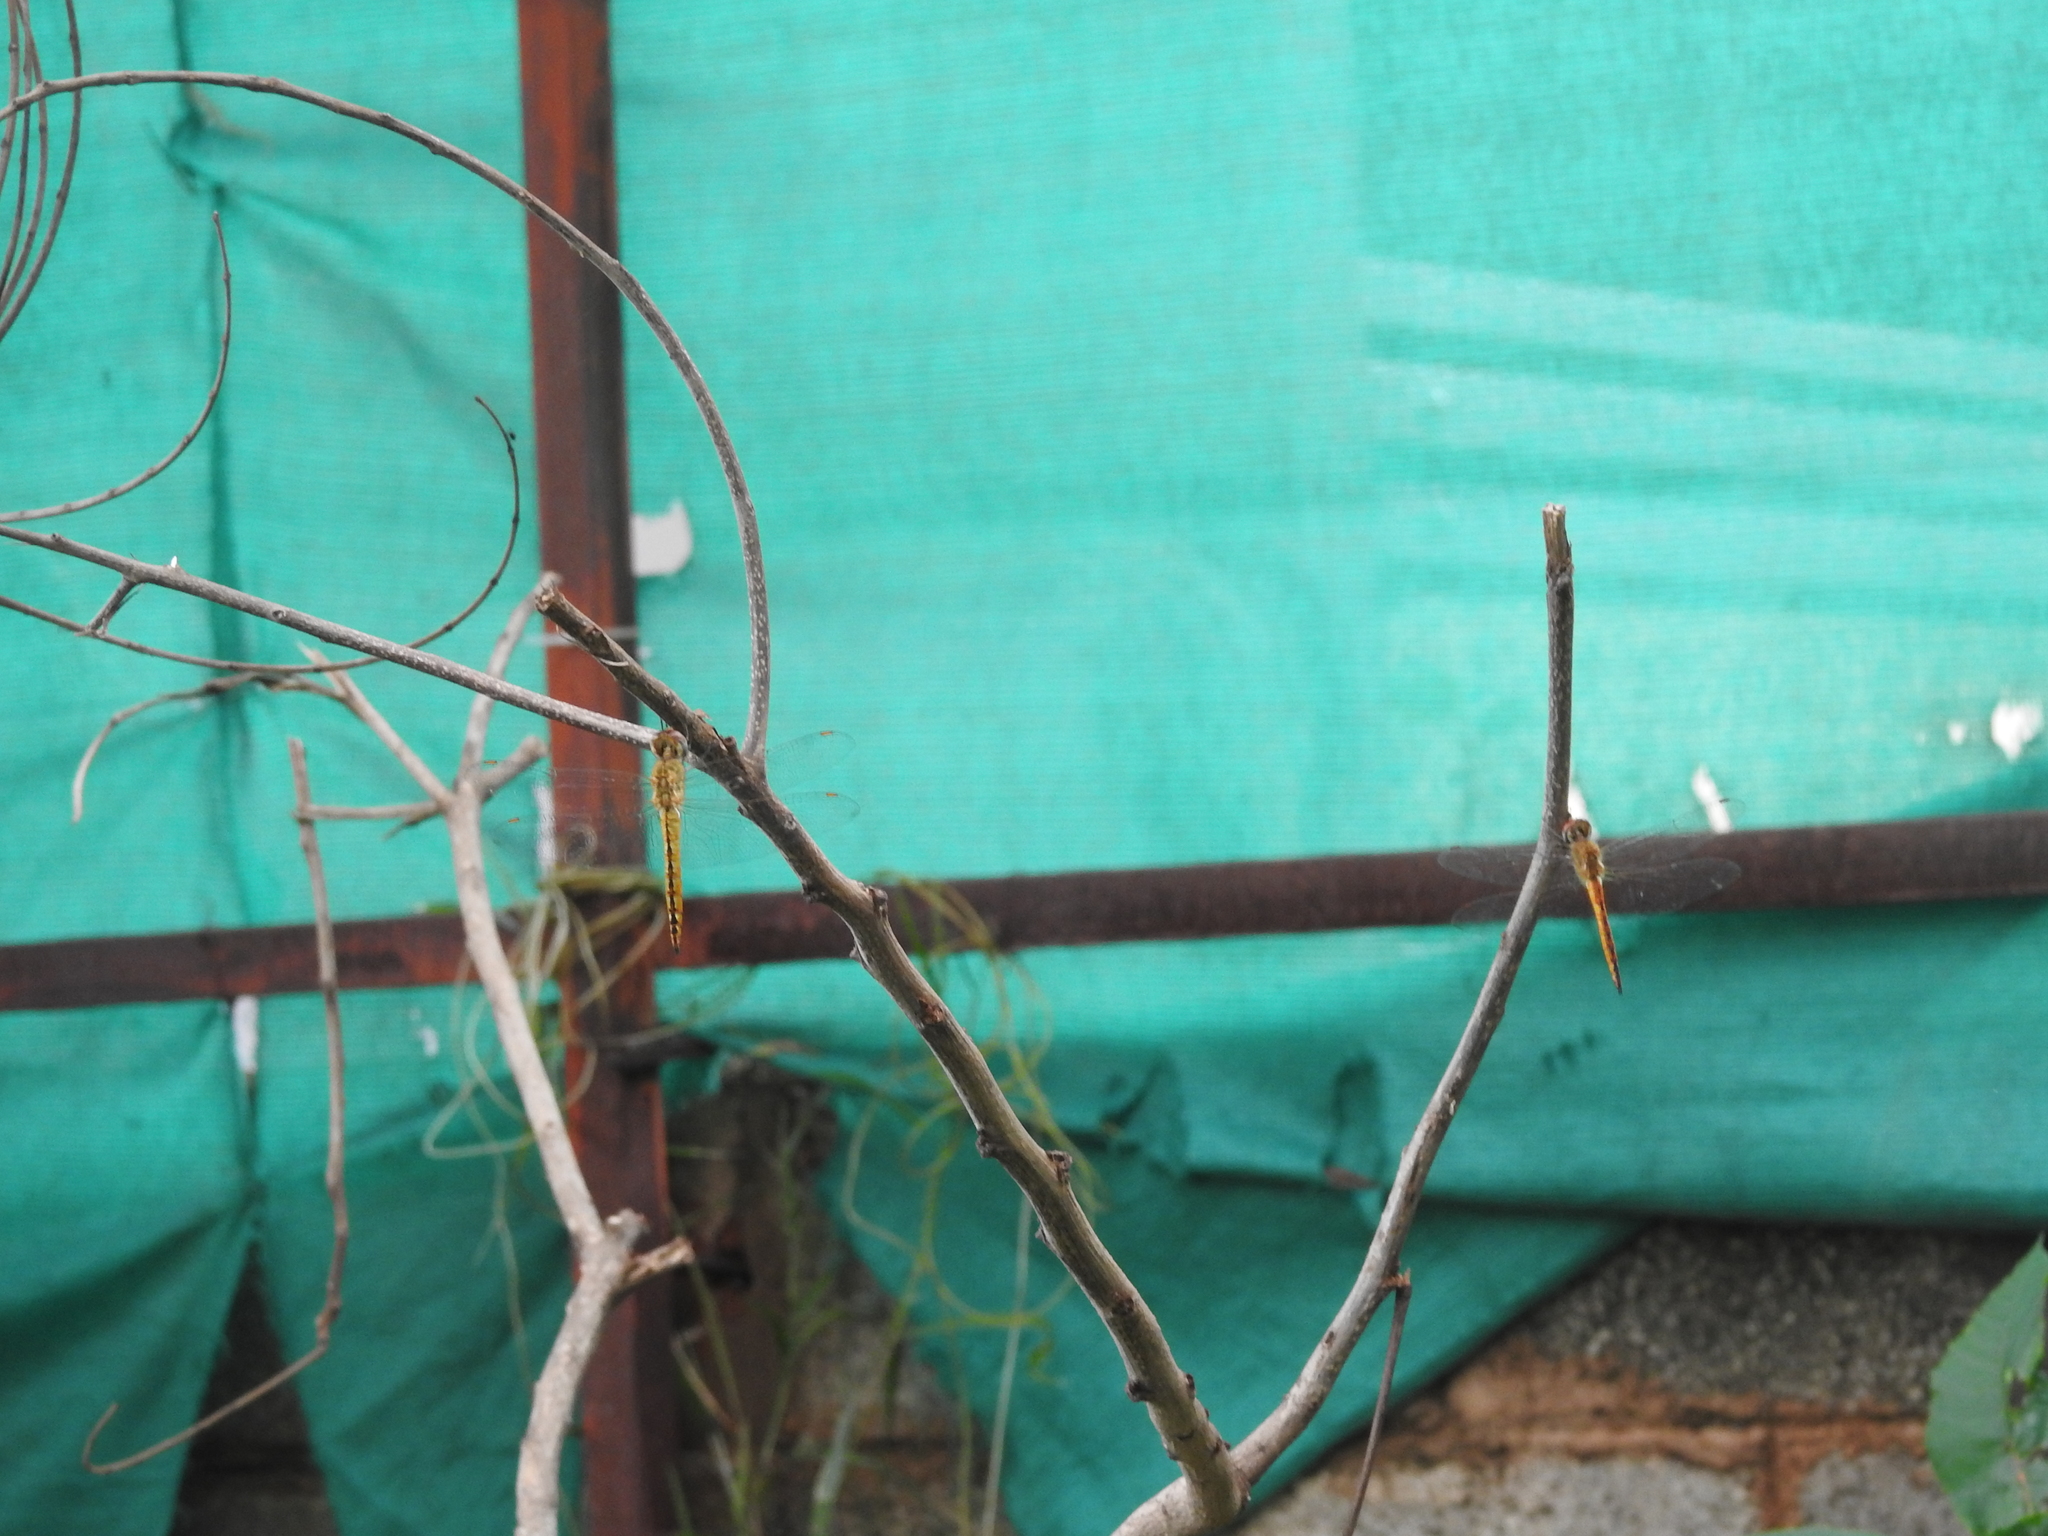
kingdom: Animalia
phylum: Arthropoda
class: Insecta
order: Odonata
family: Libellulidae
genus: Pantala
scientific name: Pantala flavescens
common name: Wandering glider
